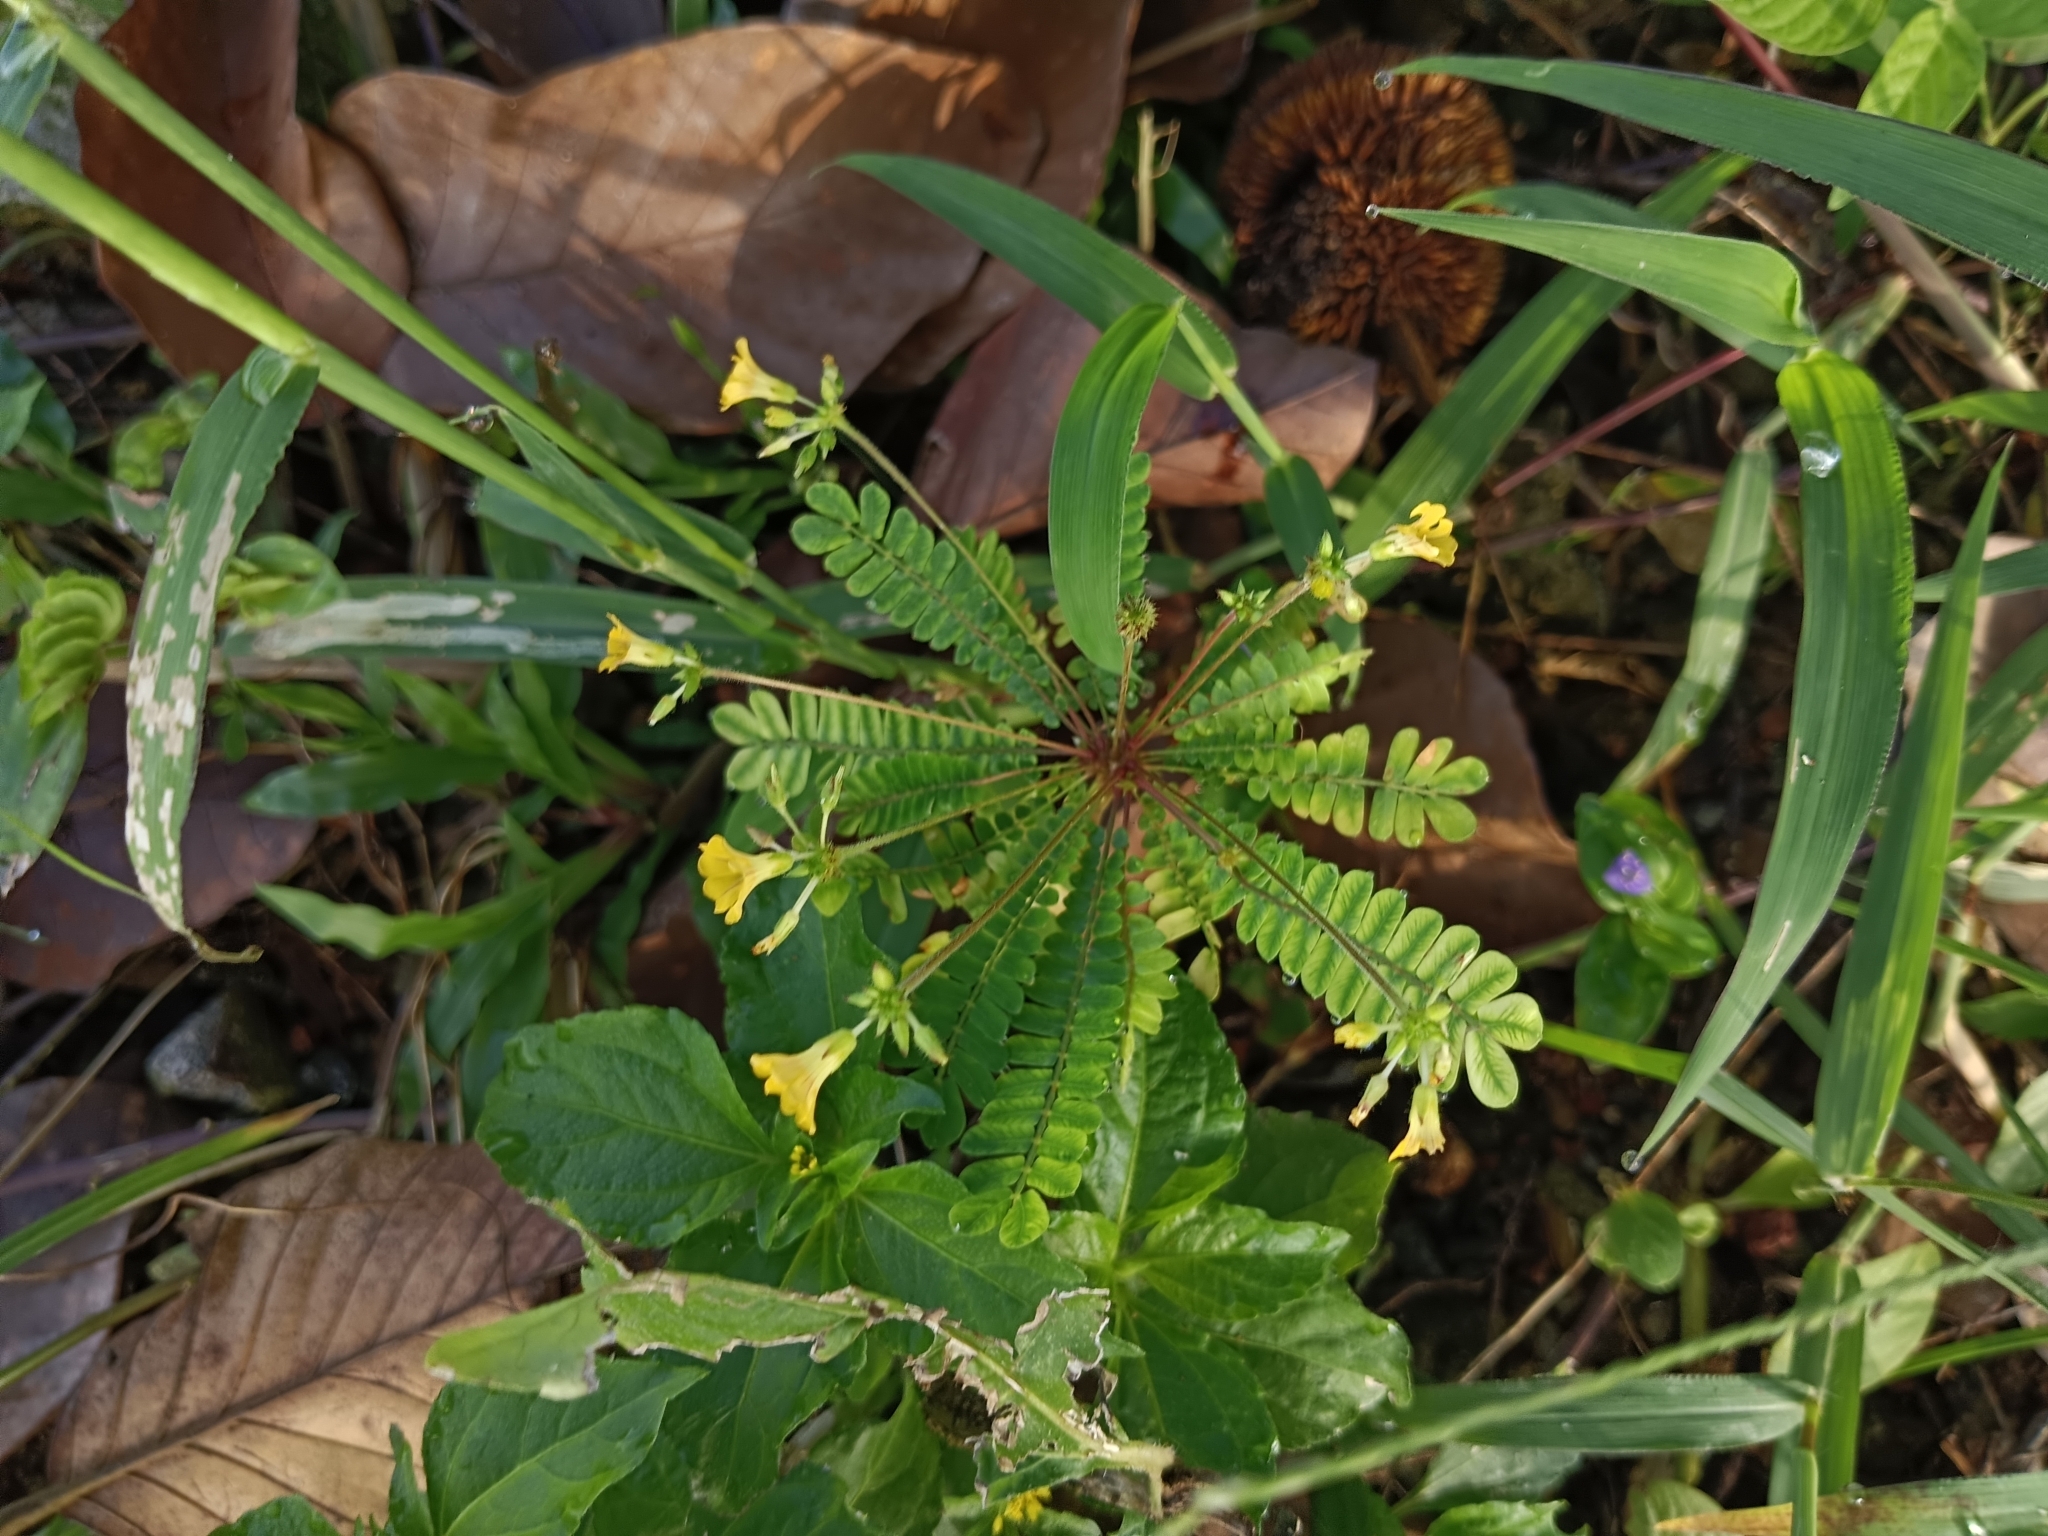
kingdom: Plantae
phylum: Tracheophyta
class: Magnoliopsida
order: Oxalidales
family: Oxalidaceae
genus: Biophytum
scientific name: Biophytum sensitivum
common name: Lifeplant
